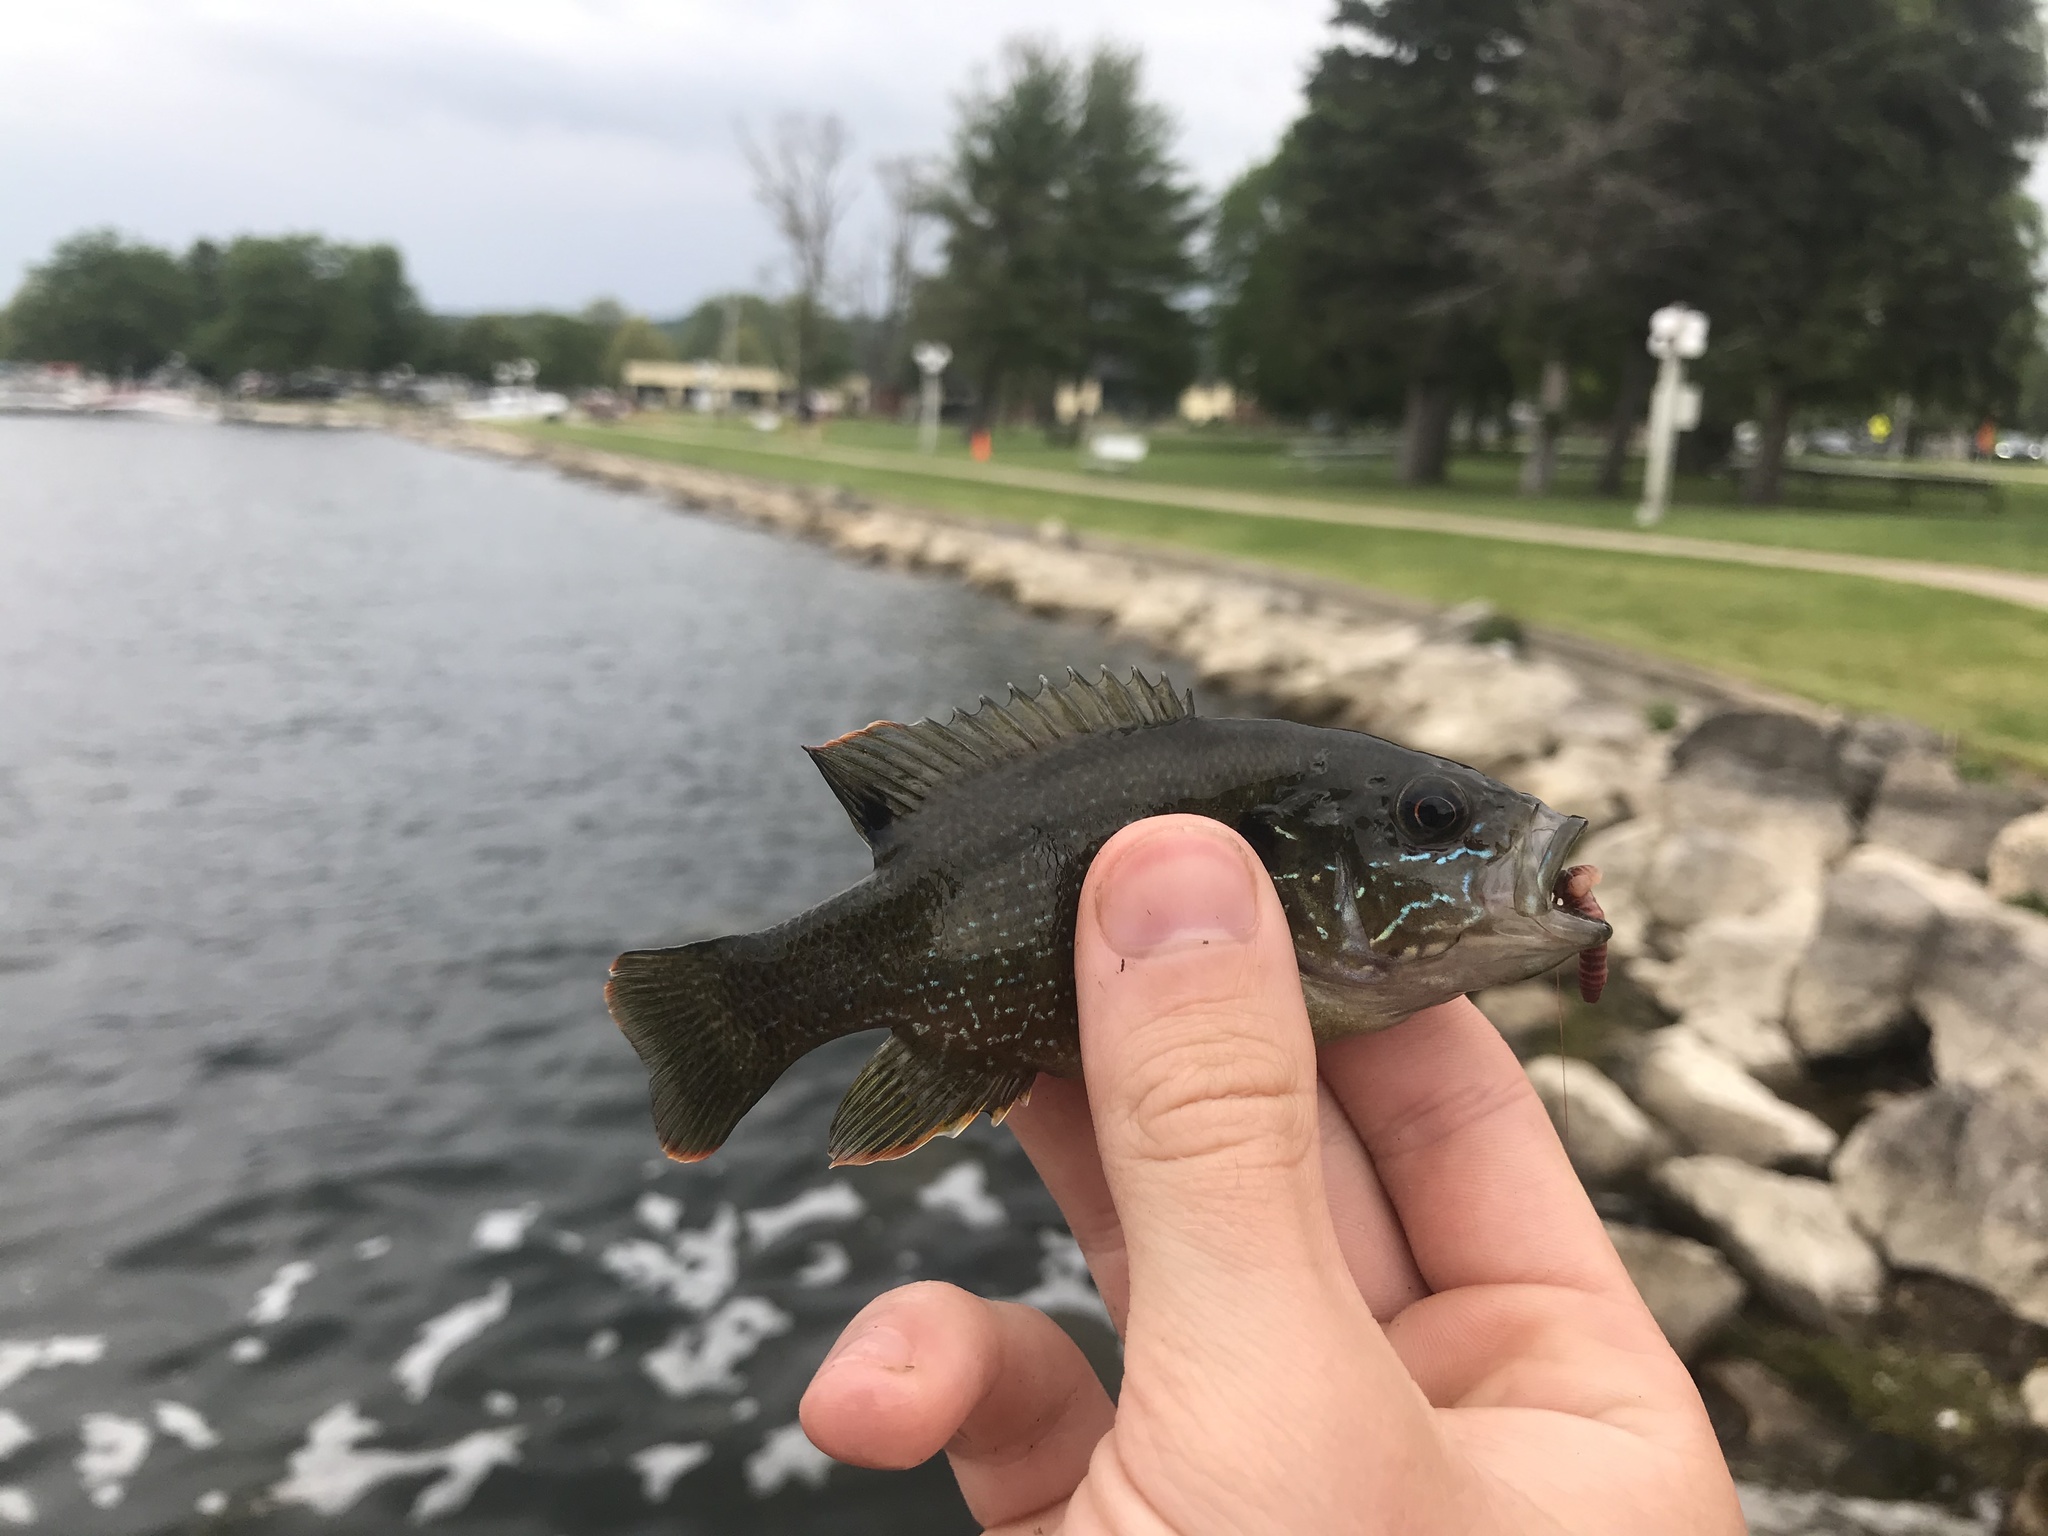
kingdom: Animalia
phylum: Chordata
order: Perciformes
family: Centrarchidae
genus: Lepomis
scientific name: Lepomis cyanellus
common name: Green sunfish
